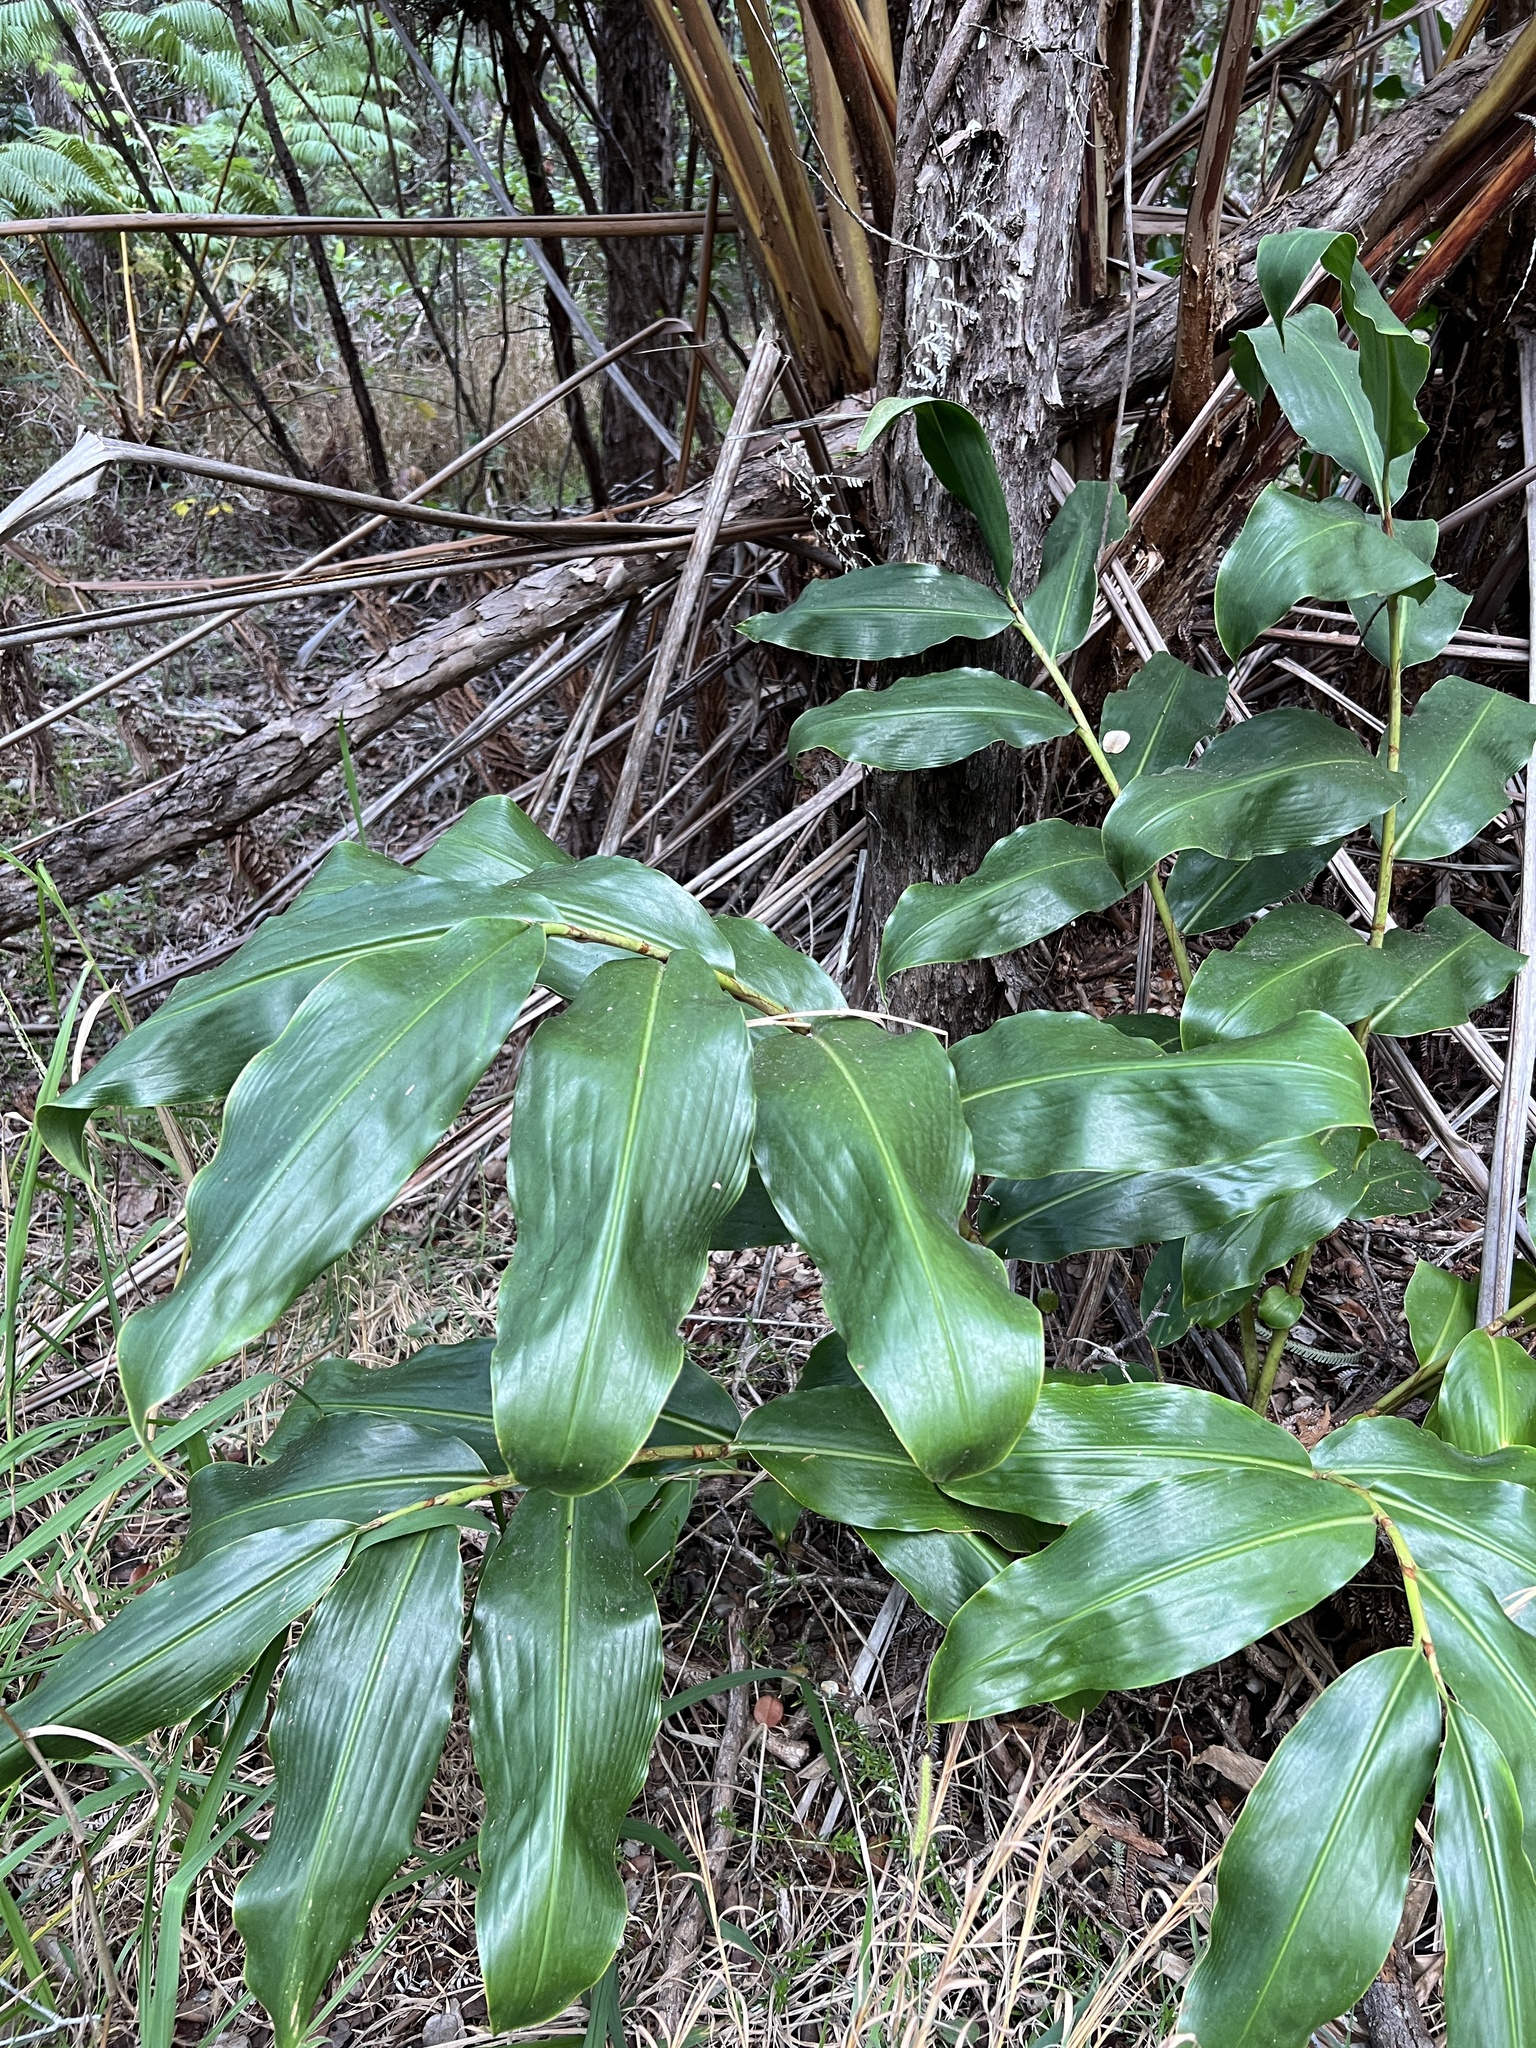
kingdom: Plantae
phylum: Tracheophyta
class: Liliopsida
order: Zingiberales
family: Zingiberaceae
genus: Hedychium
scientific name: Hedychium gardnerianum
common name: Himalayan ginger
